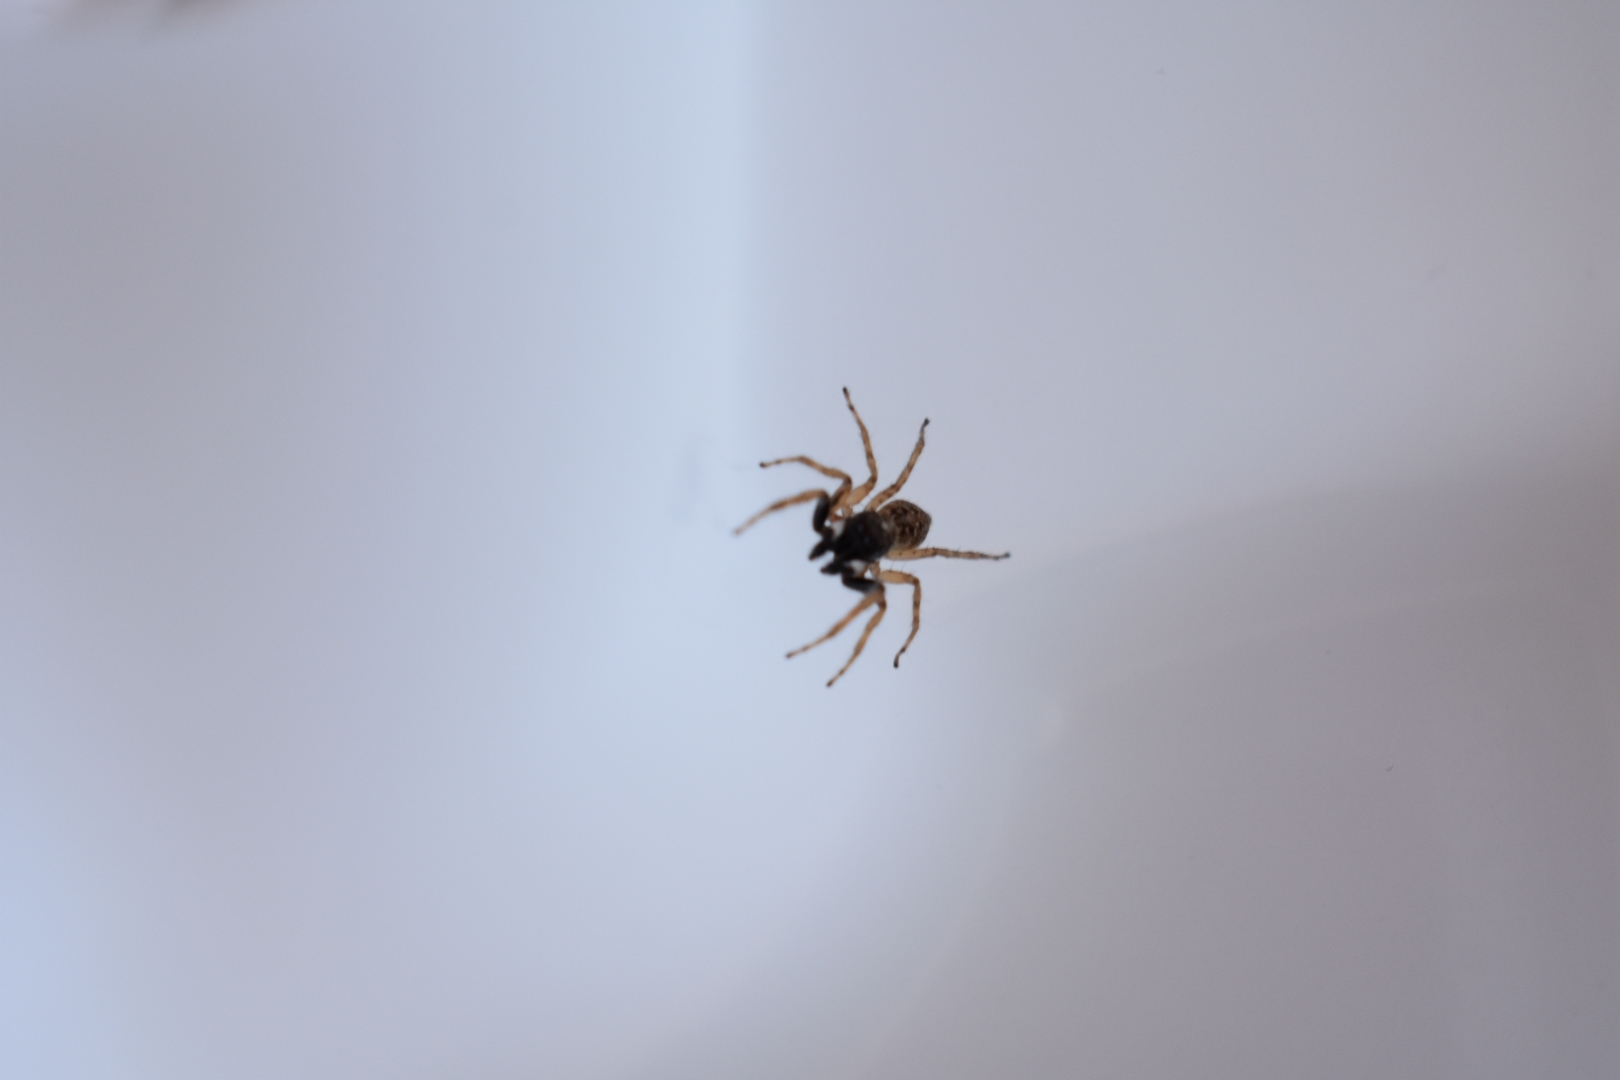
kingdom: Animalia
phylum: Arthropoda
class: Arachnida
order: Araneae
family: Salticidae
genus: Menemerus
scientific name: Menemerus semilimbatus
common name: Jumping spider
